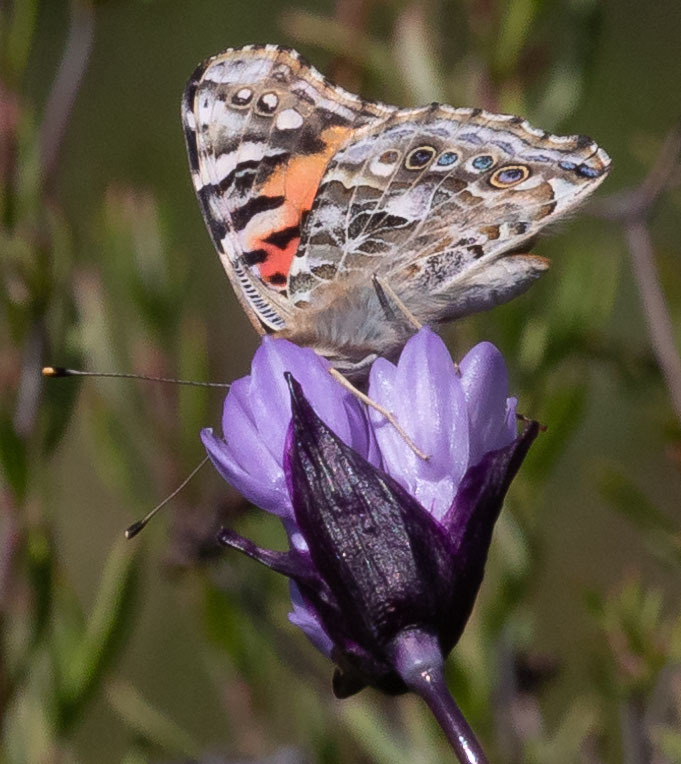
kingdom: Animalia
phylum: Arthropoda
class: Insecta
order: Lepidoptera
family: Nymphalidae
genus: Vanessa
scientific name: Vanessa cardui
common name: Painted lady
